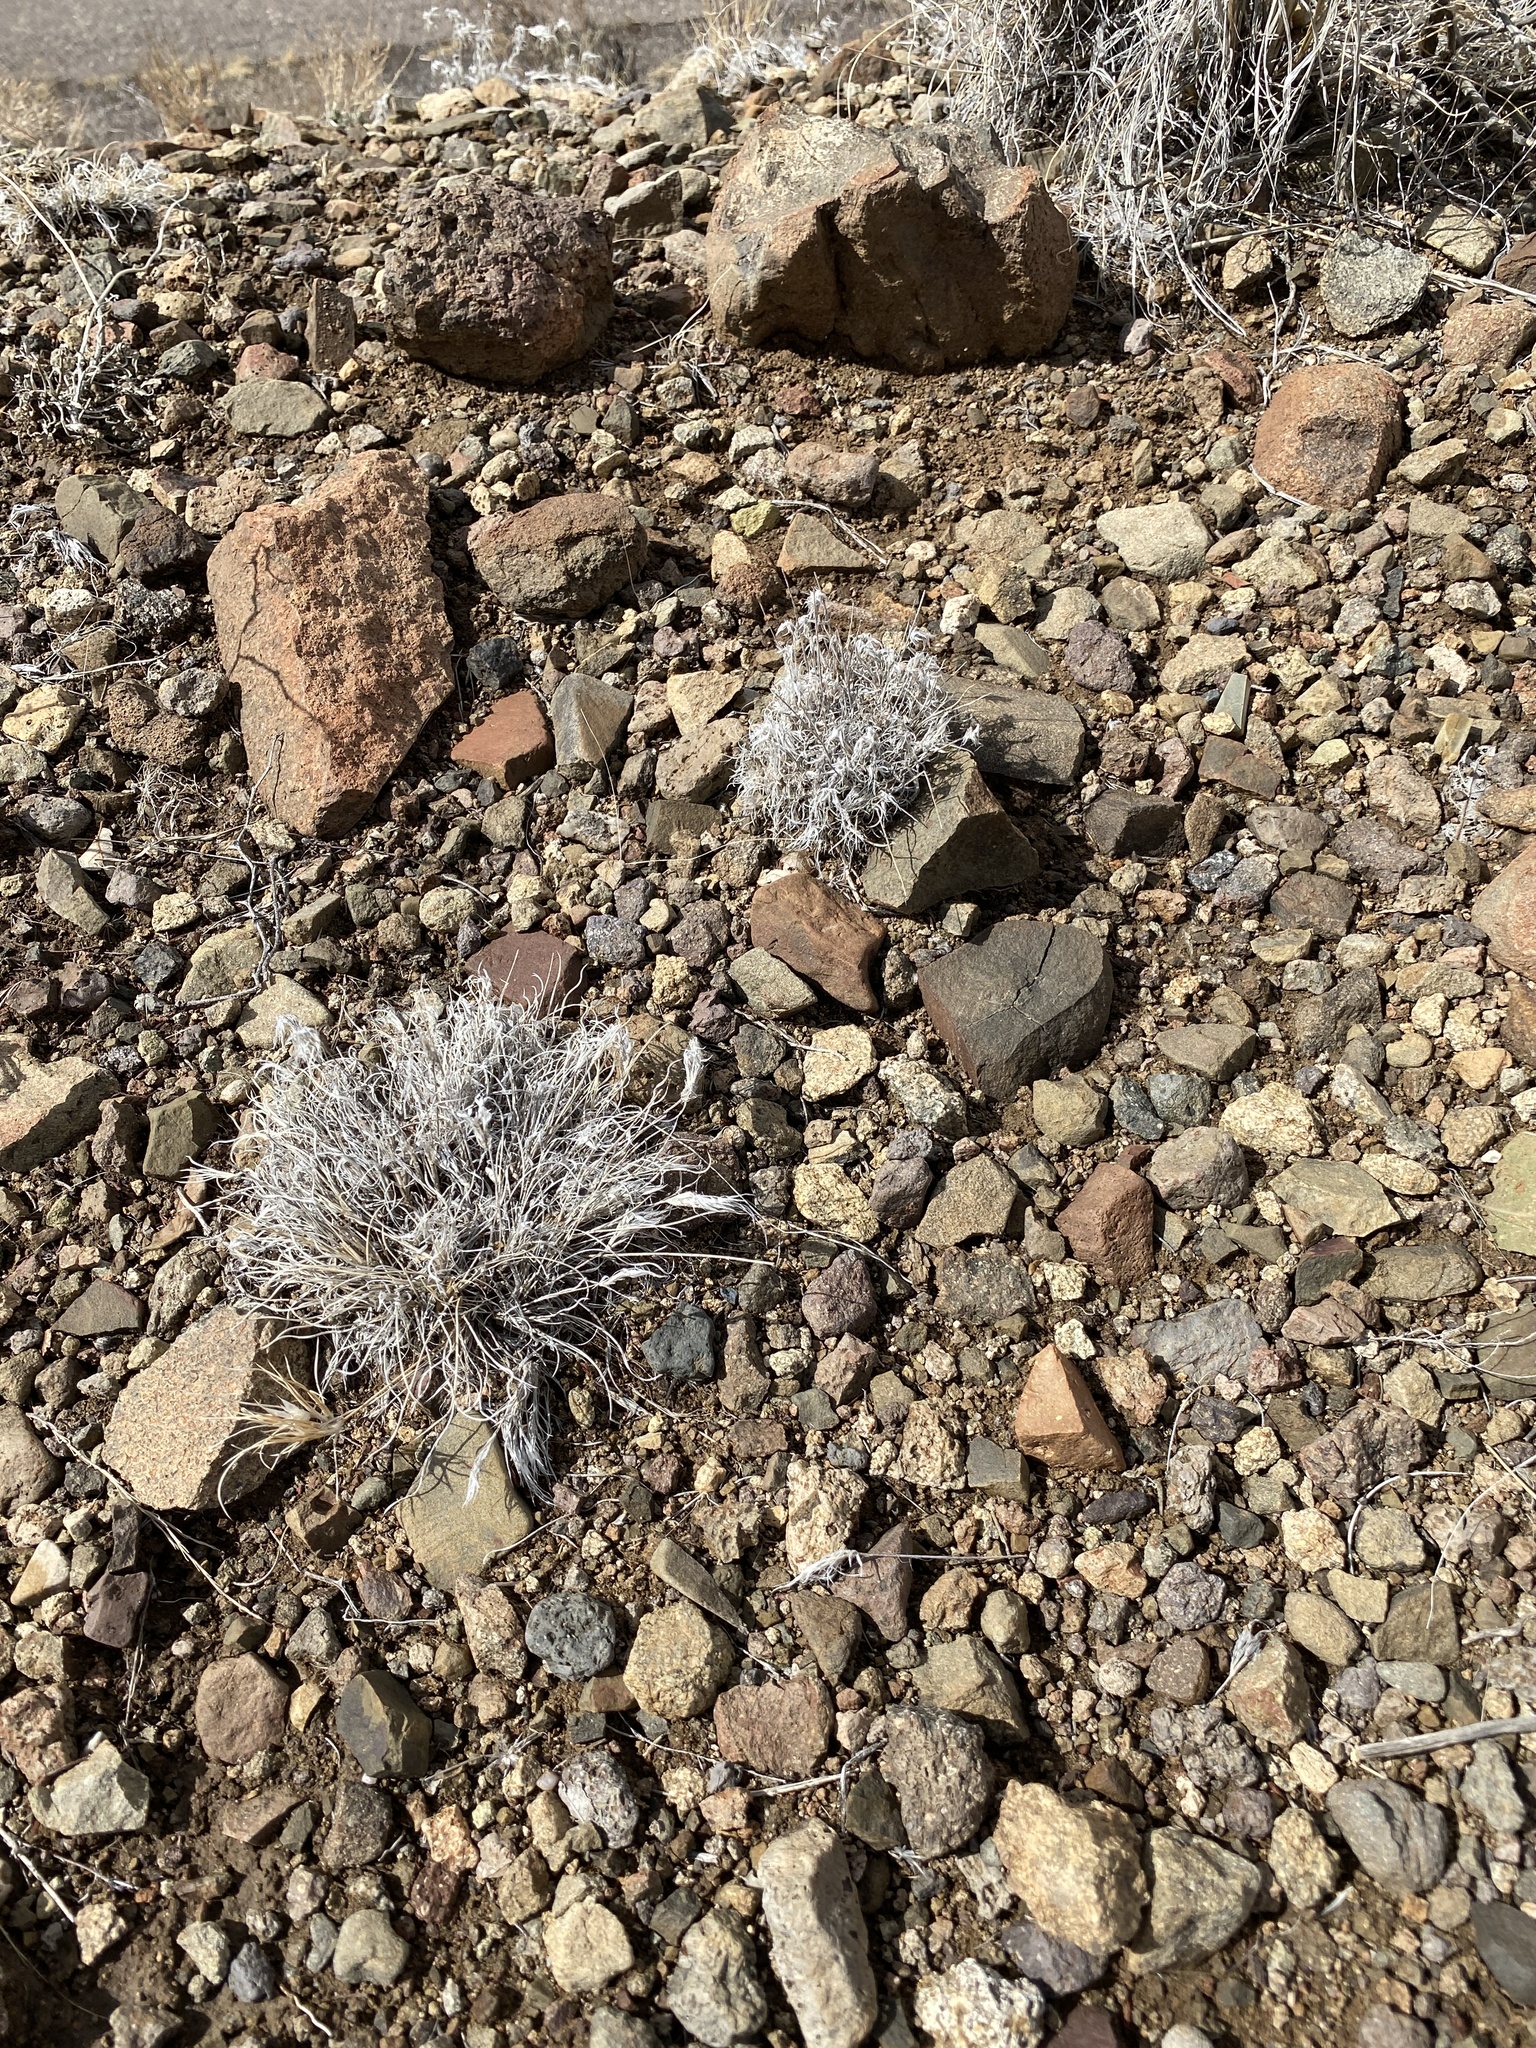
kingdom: Plantae
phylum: Tracheophyta
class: Liliopsida
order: Poales
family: Poaceae
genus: Dasyochloa
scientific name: Dasyochloa pulchella
